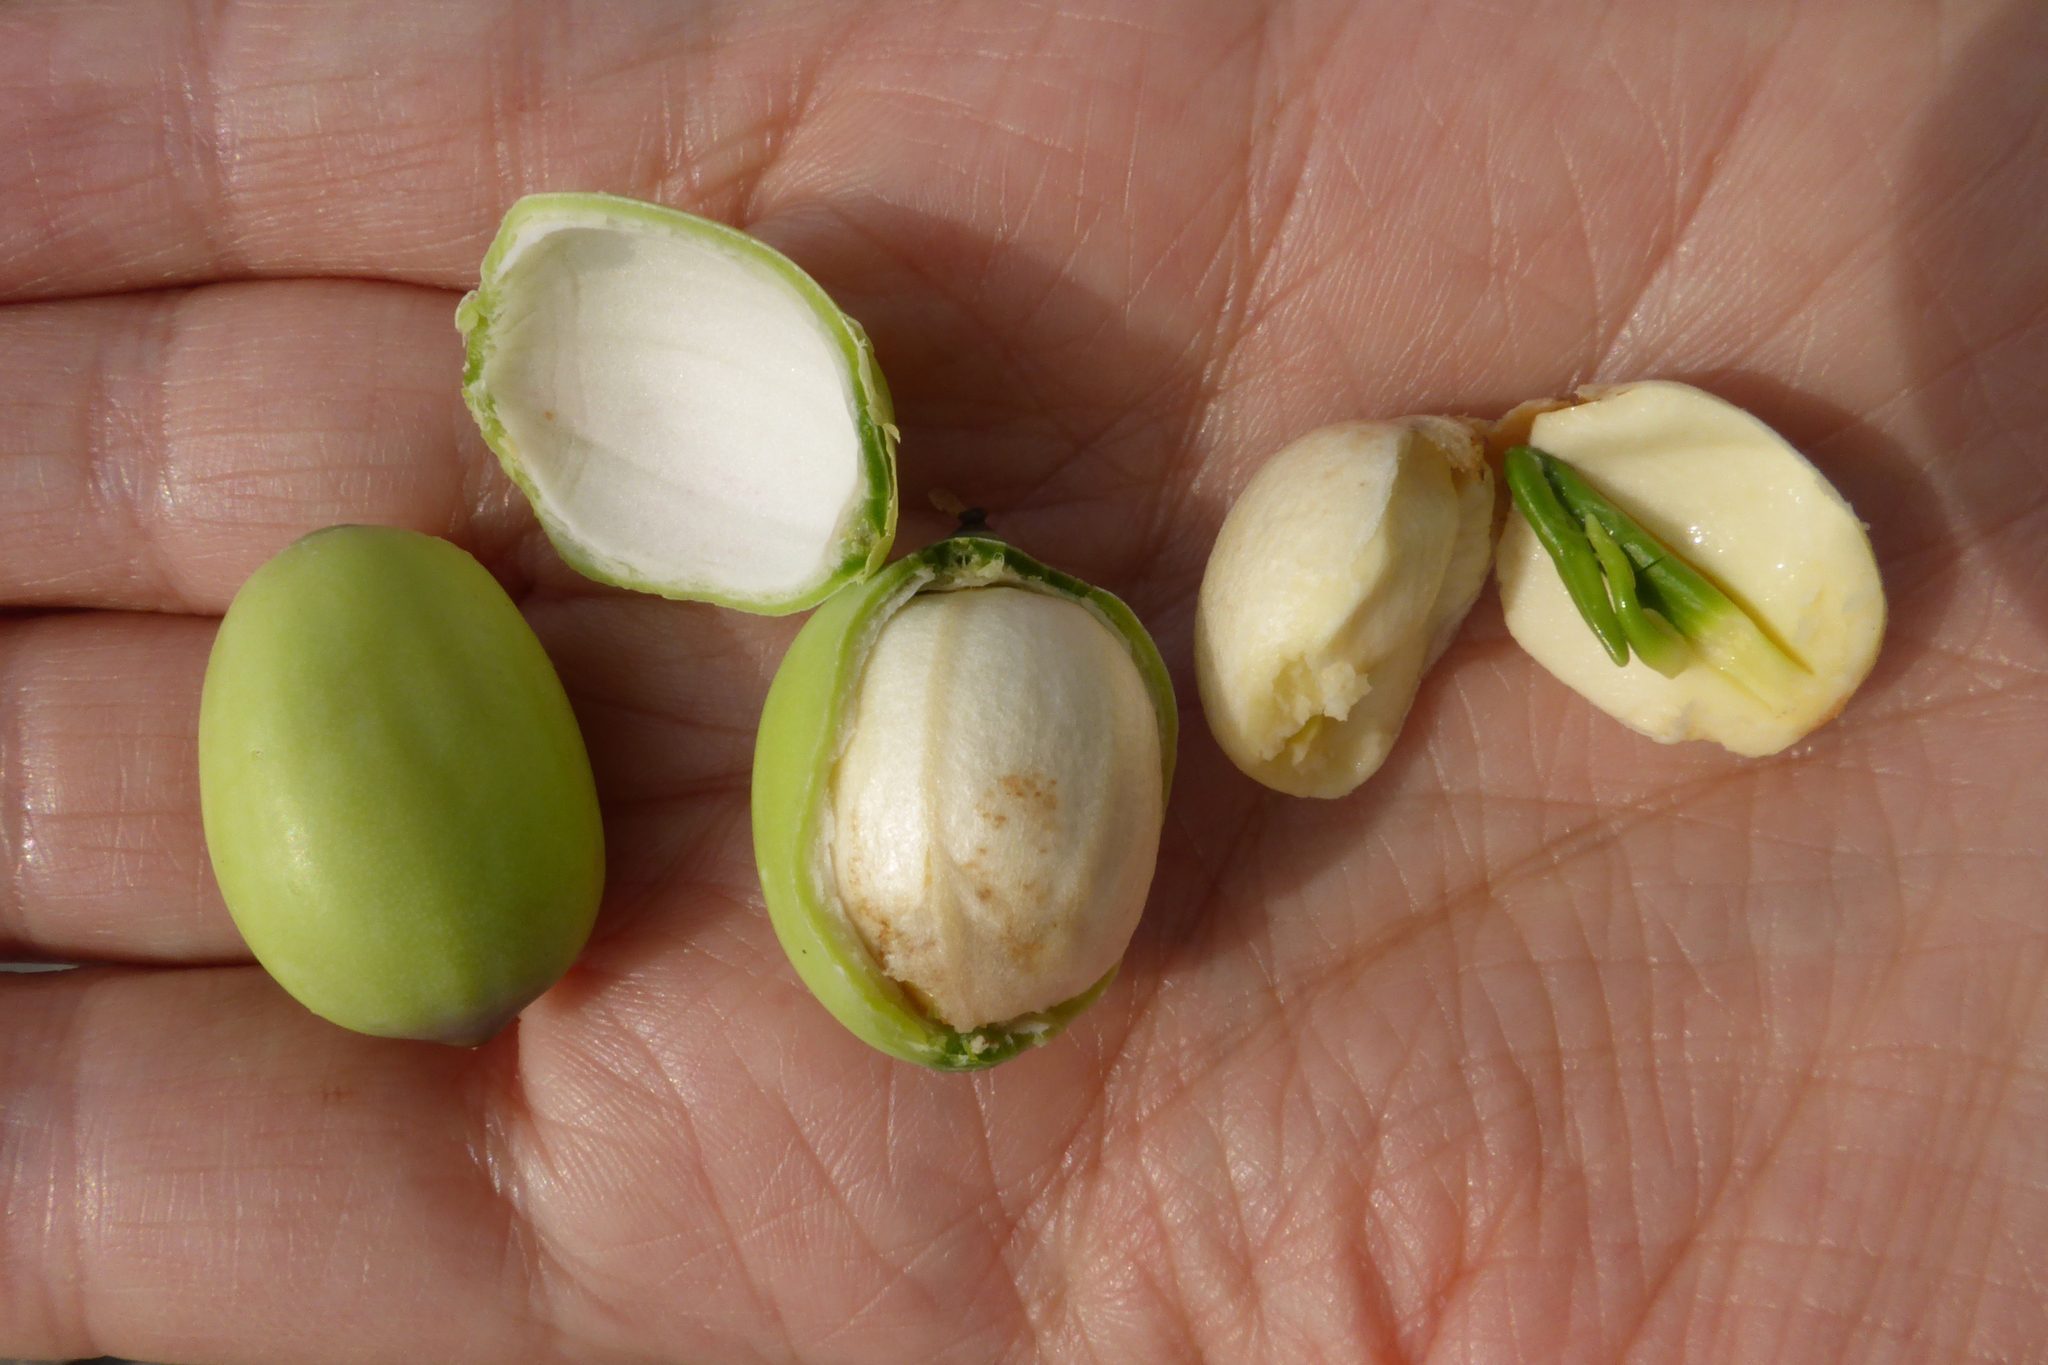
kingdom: Plantae
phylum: Tracheophyta
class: Magnoliopsida
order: Proteales
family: Nelumbonaceae
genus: Nelumbo
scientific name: Nelumbo nucifera
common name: Sacred lotus
